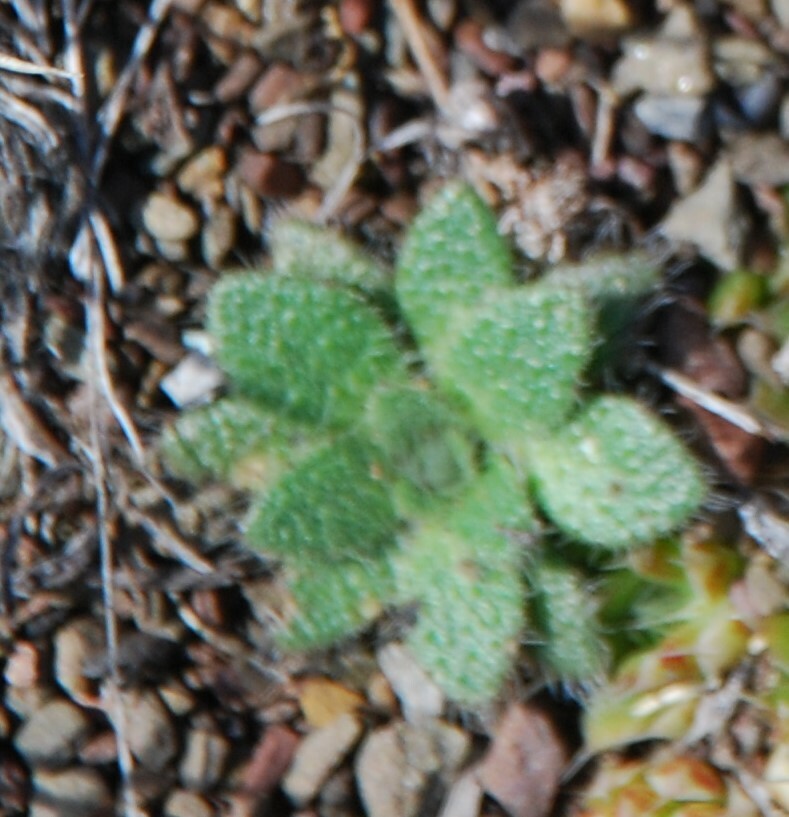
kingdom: Plantae
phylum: Tracheophyta
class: Magnoliopsida
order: Brassicales
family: Brassicaceae
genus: Clausia
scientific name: Clausia aprica
